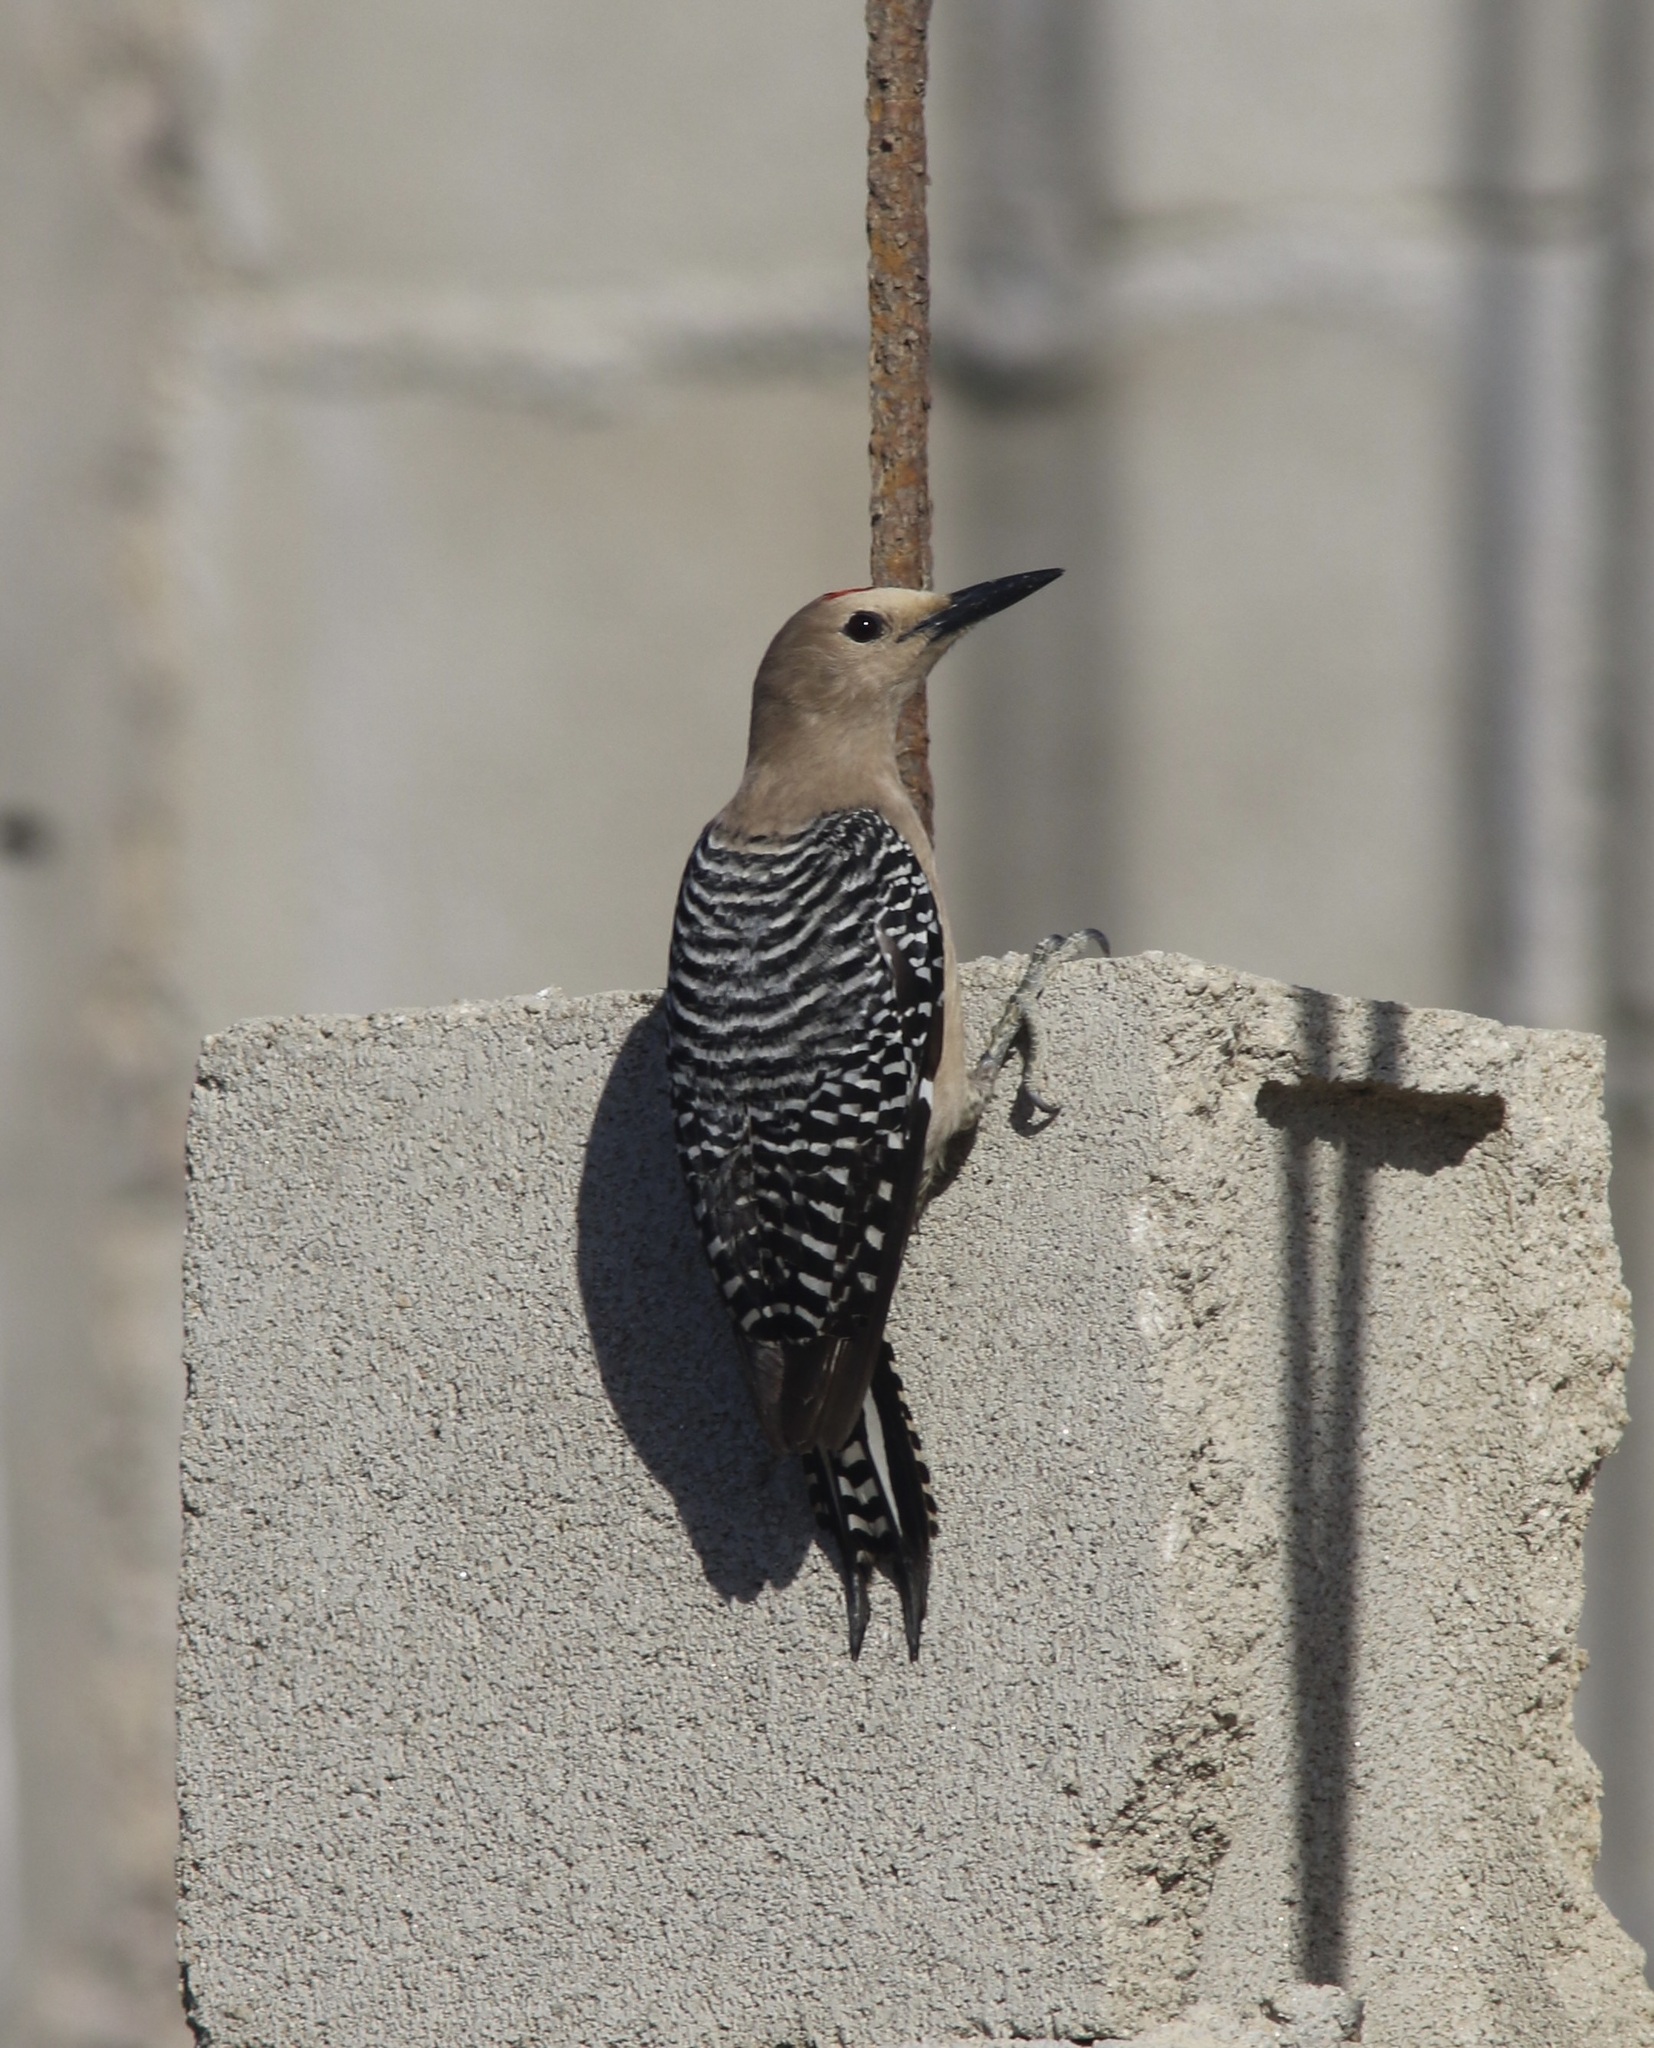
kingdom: Animalia
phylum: Chordata
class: Aves
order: Piciformes
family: Picidae
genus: Melanerpes
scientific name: Melanerpes uropygialis
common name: Gila woodpecker
